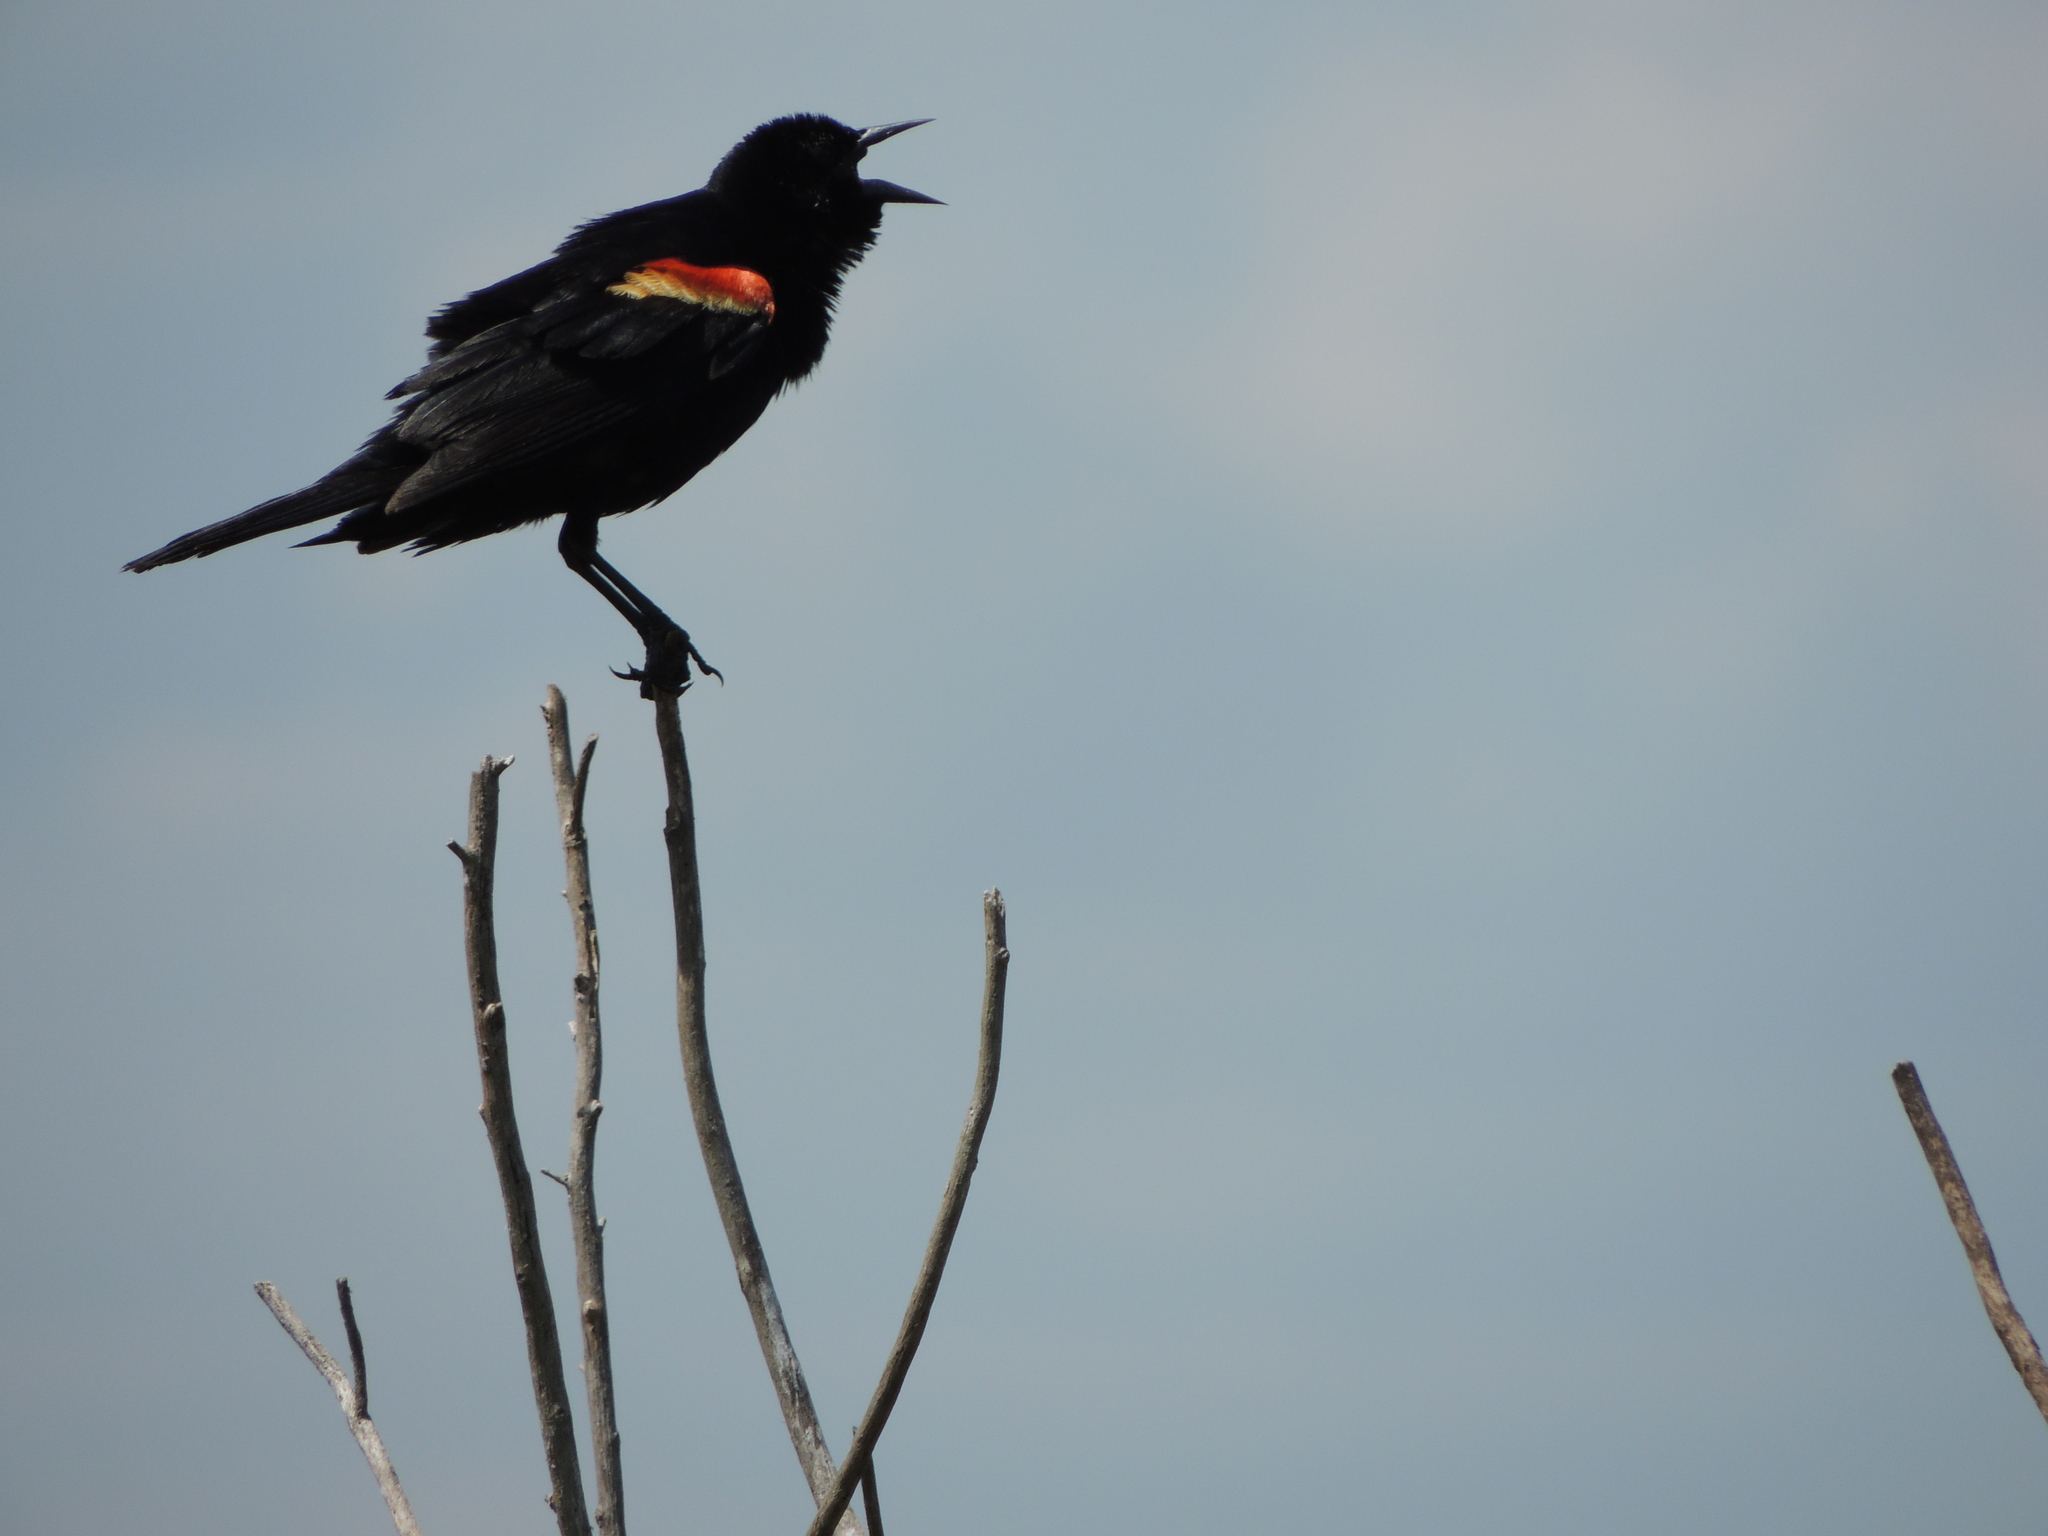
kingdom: Animalia
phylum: Chordata
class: Aves
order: Passeriformes
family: Icteridae
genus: Agelaius
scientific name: Agelaius phoeniceus
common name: Red-winged blackbird
